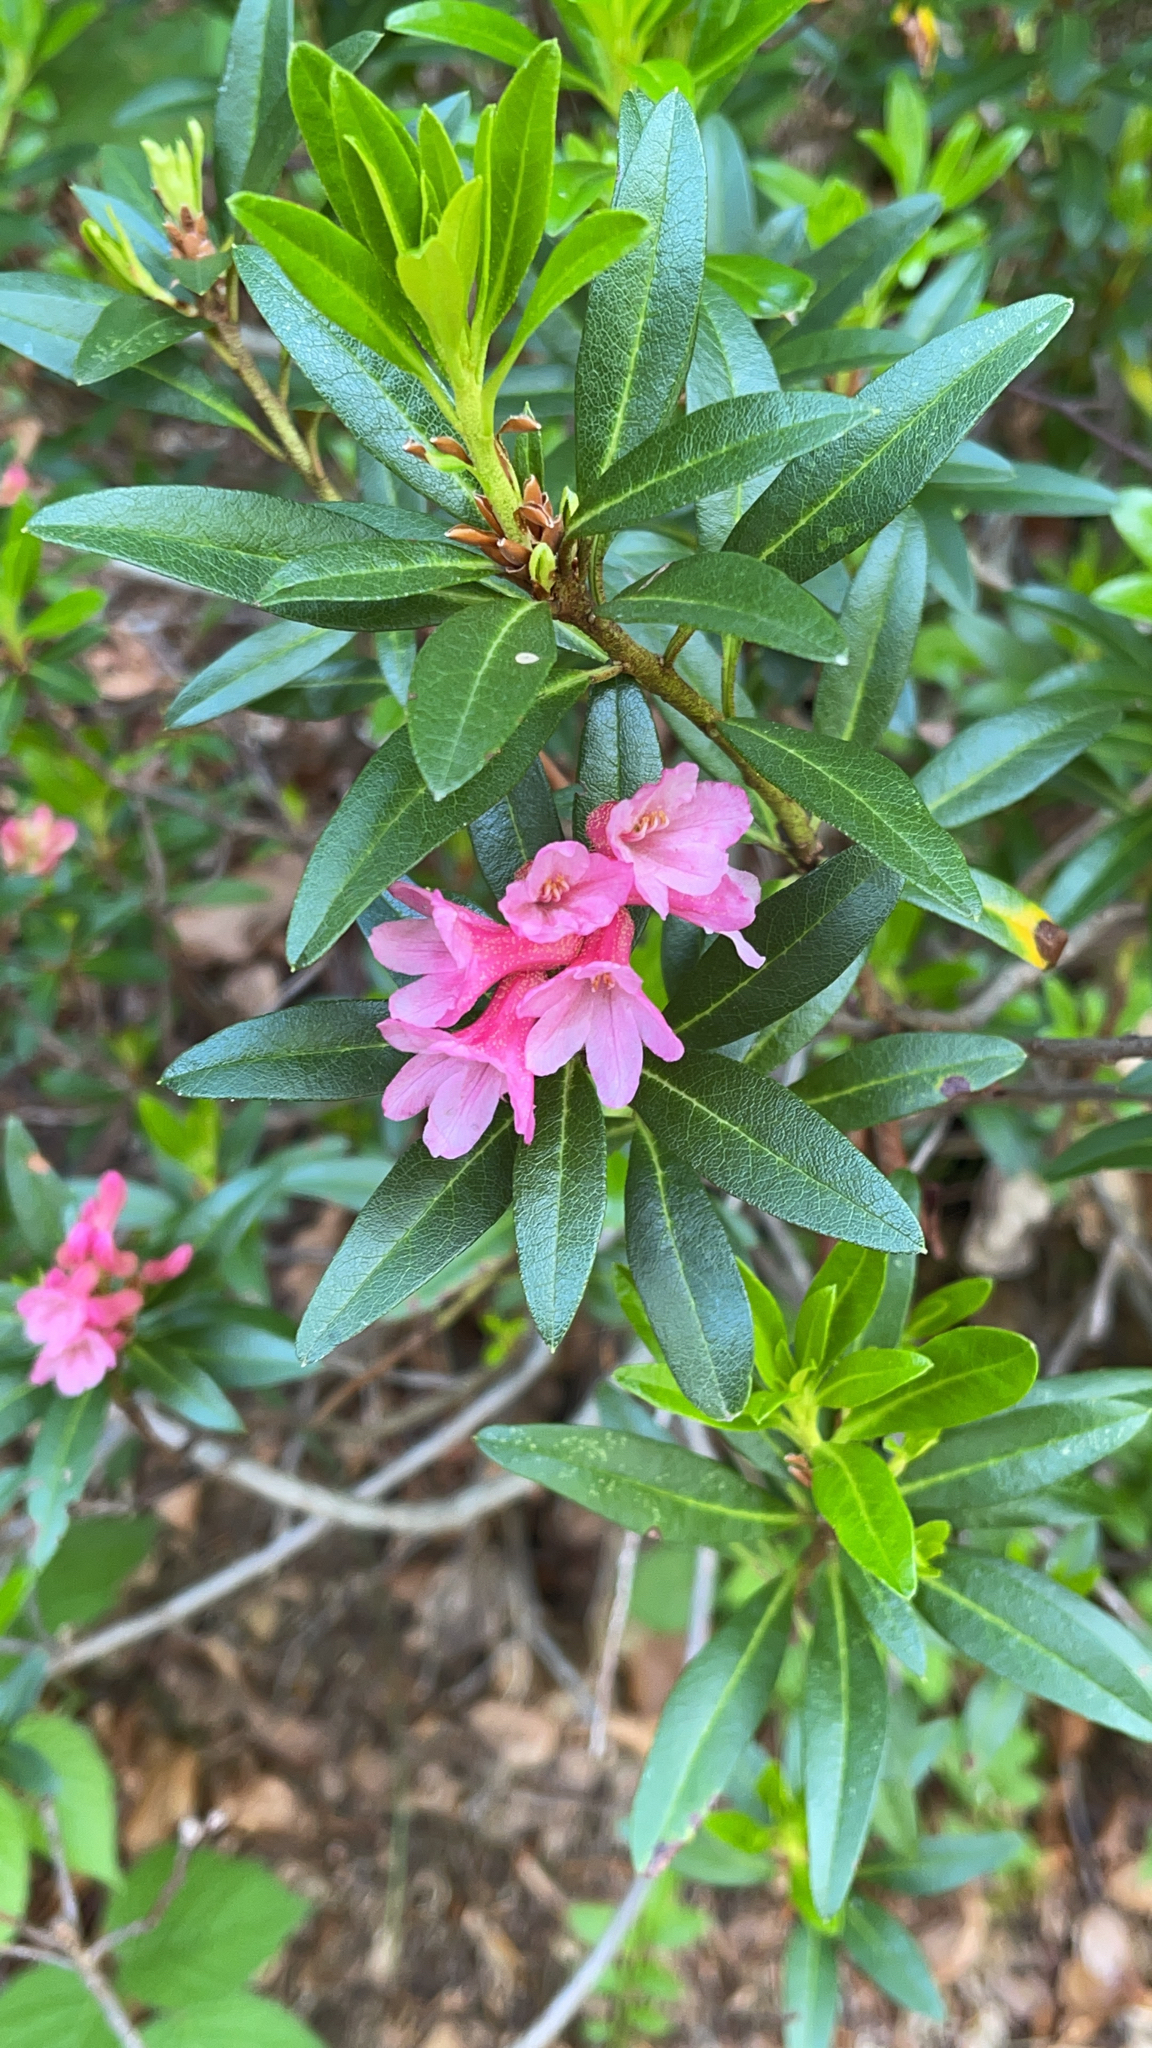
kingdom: Plantae
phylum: Tracheophyta
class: Magnoliopsida
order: Ericales
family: Ericaceae
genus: Rhododendron
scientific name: Rhododendron ferrugineum
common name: Alpenrose
